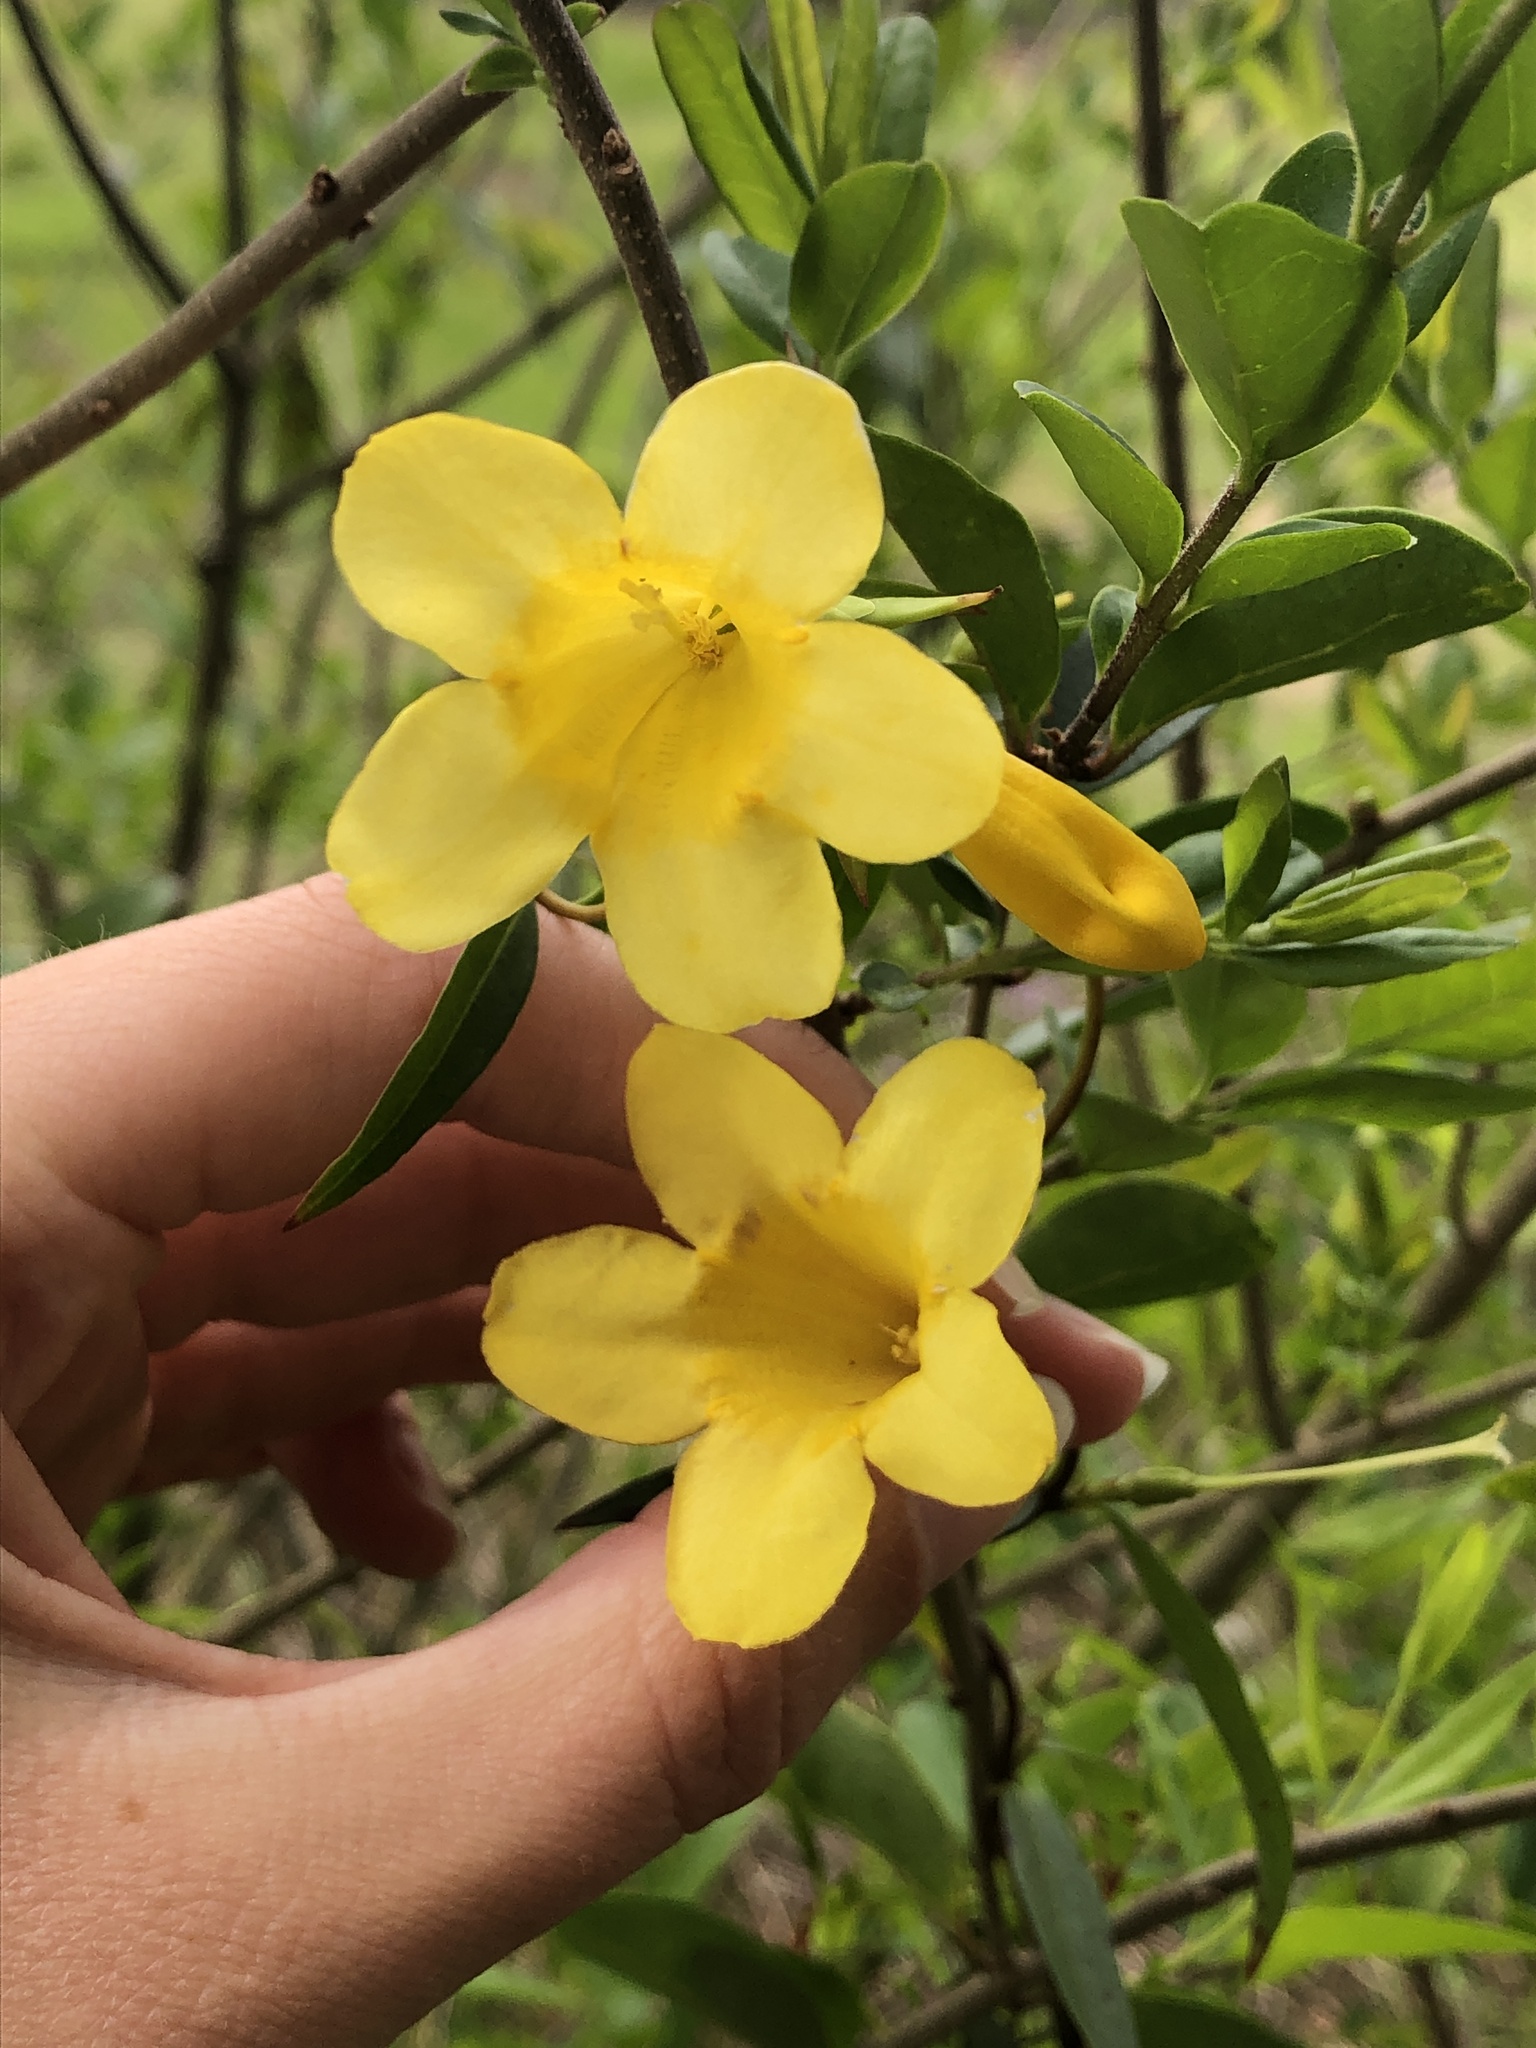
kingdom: Plantae
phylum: Tracheophyta
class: Magnoliopsida
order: Gentianales
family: Gelsemiaceae
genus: Gelsemium
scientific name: Gelsemium sempervirens
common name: Carolina-jasmine
